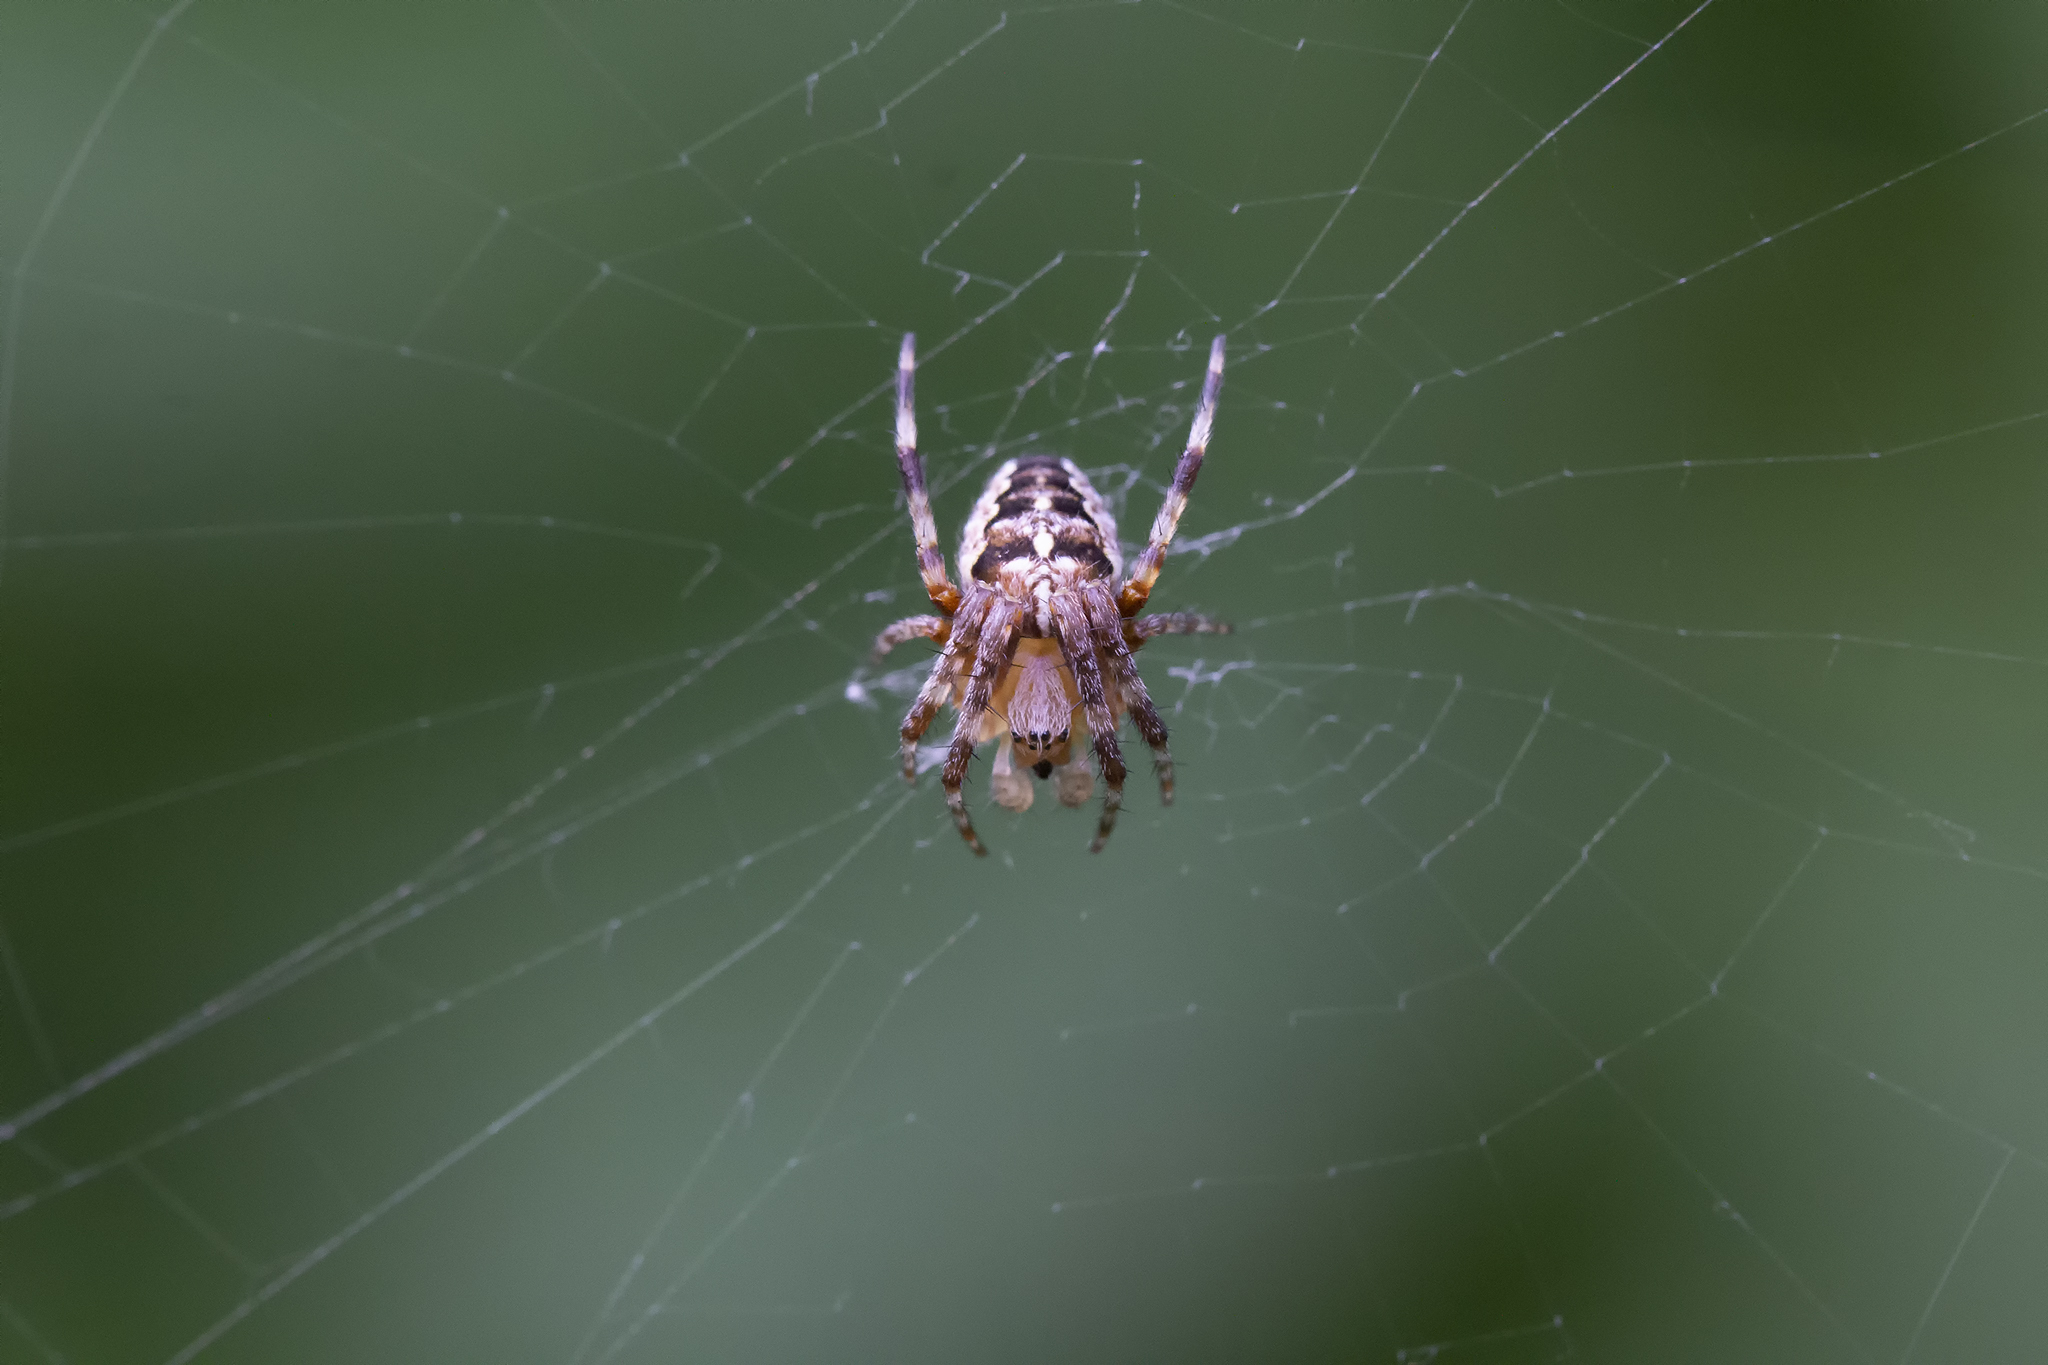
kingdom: Animalia
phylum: Arthropoda
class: Arachnida
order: Araneae
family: Araneidae
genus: Araneus
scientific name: Araneus diadematus
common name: Cross orbweaver
